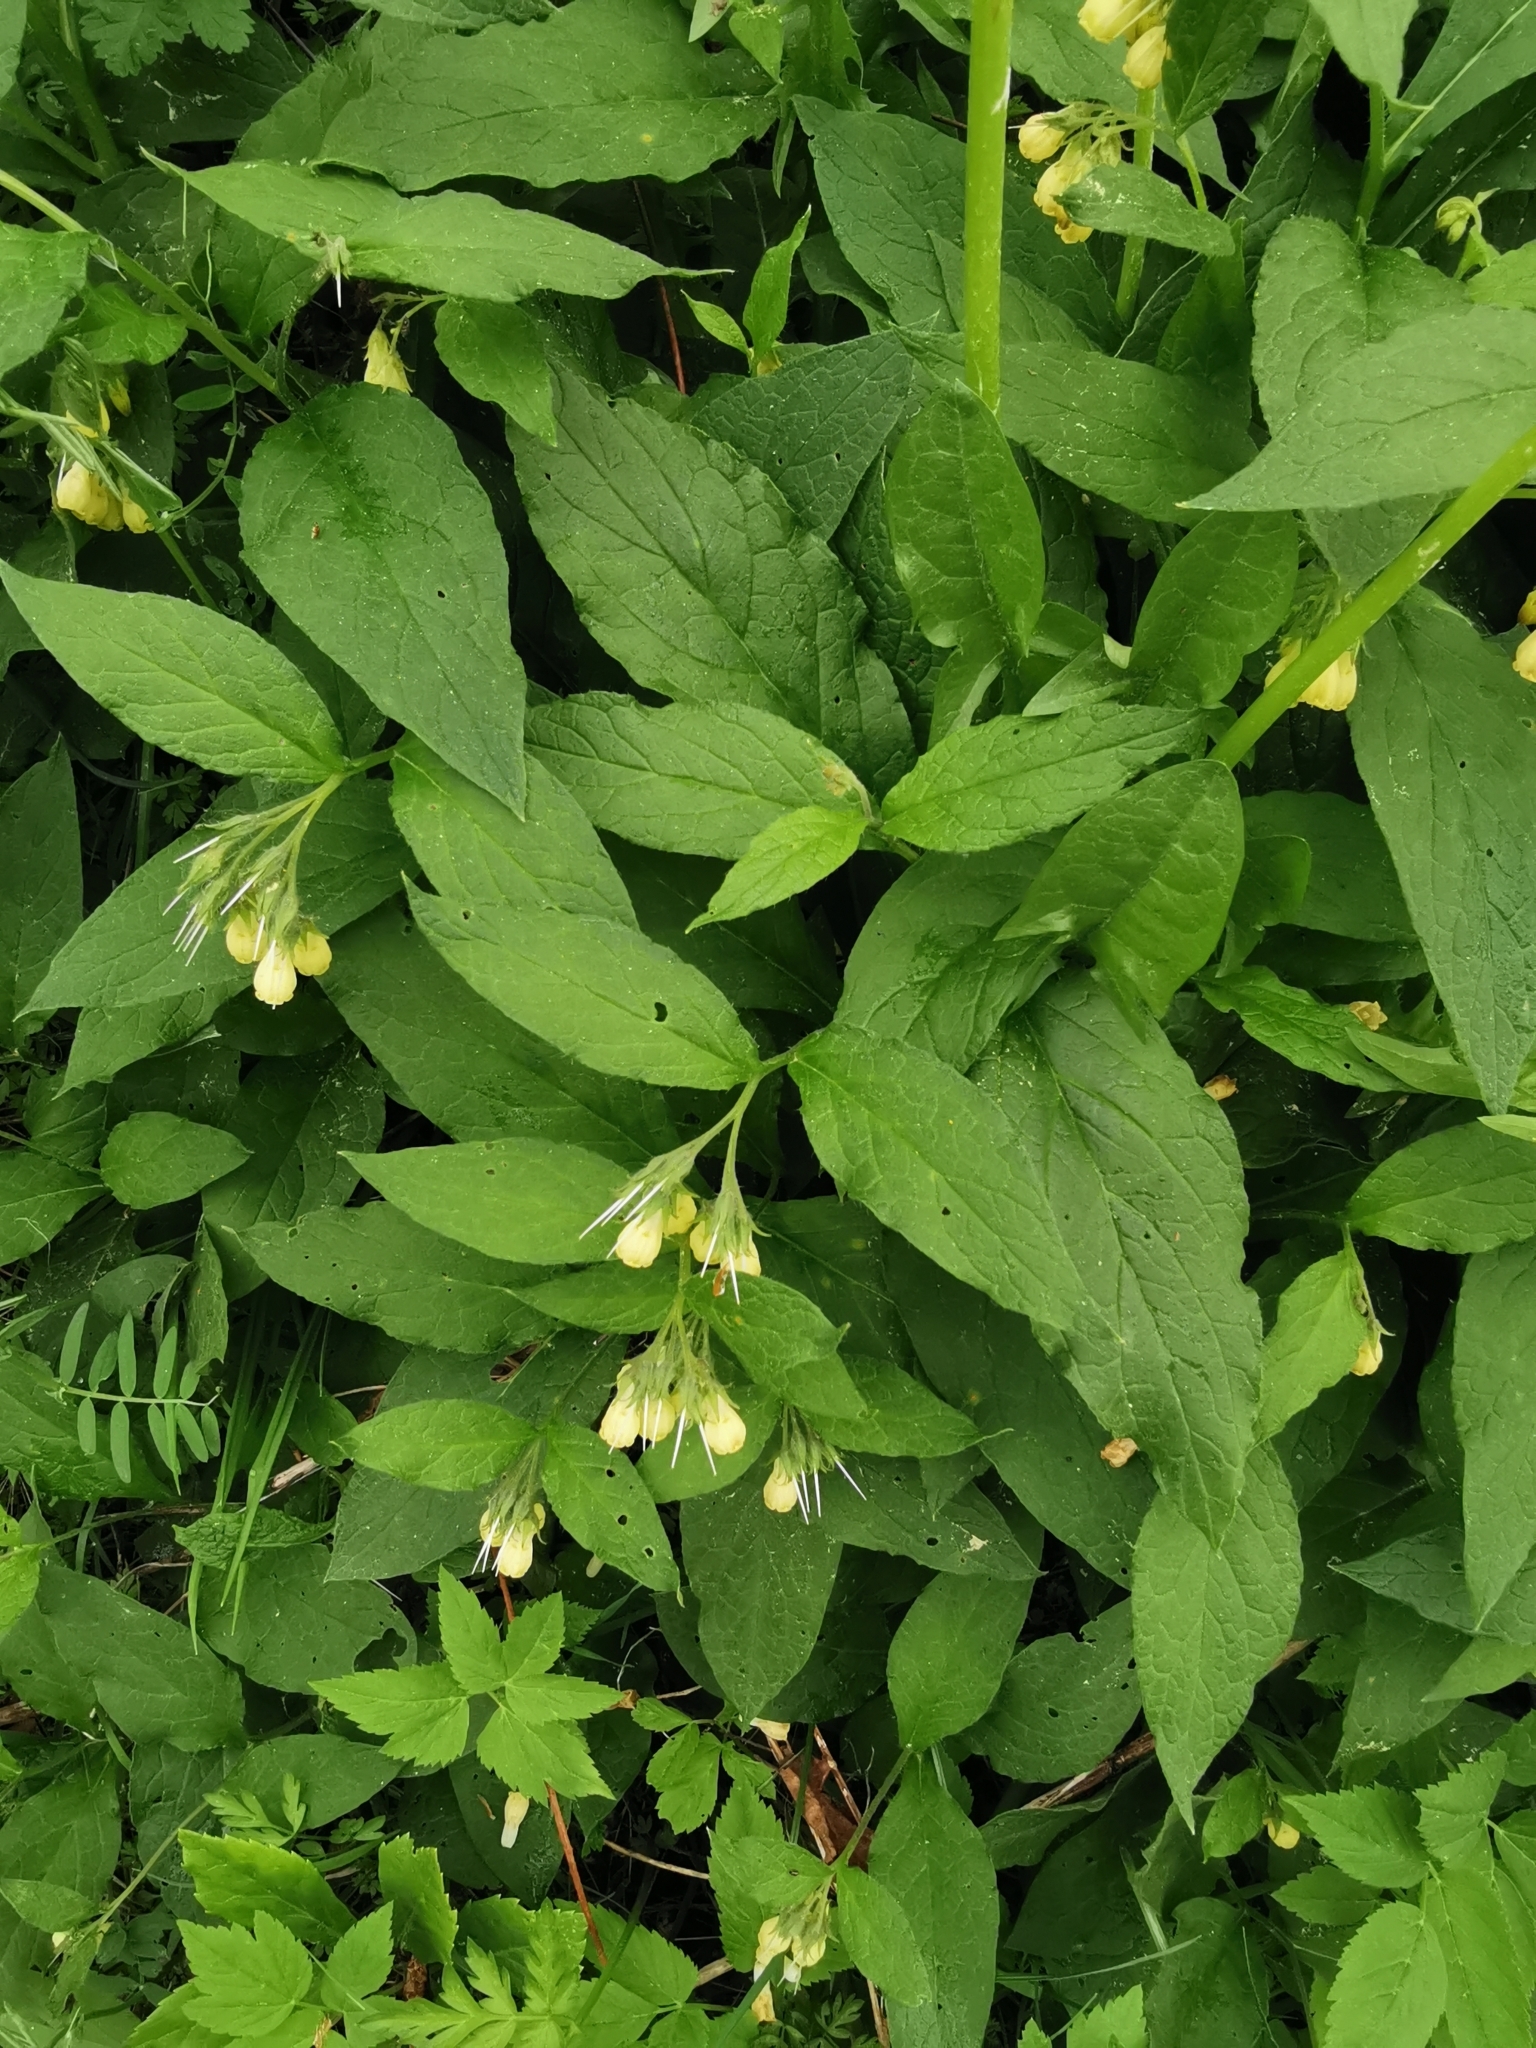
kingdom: Plantae
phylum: Tracheophyta
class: Magnoliopsida
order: Boraginales
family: Boraginaceae
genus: Symphytum
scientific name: Symphytum tuberosum
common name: Tuberous comfrey
